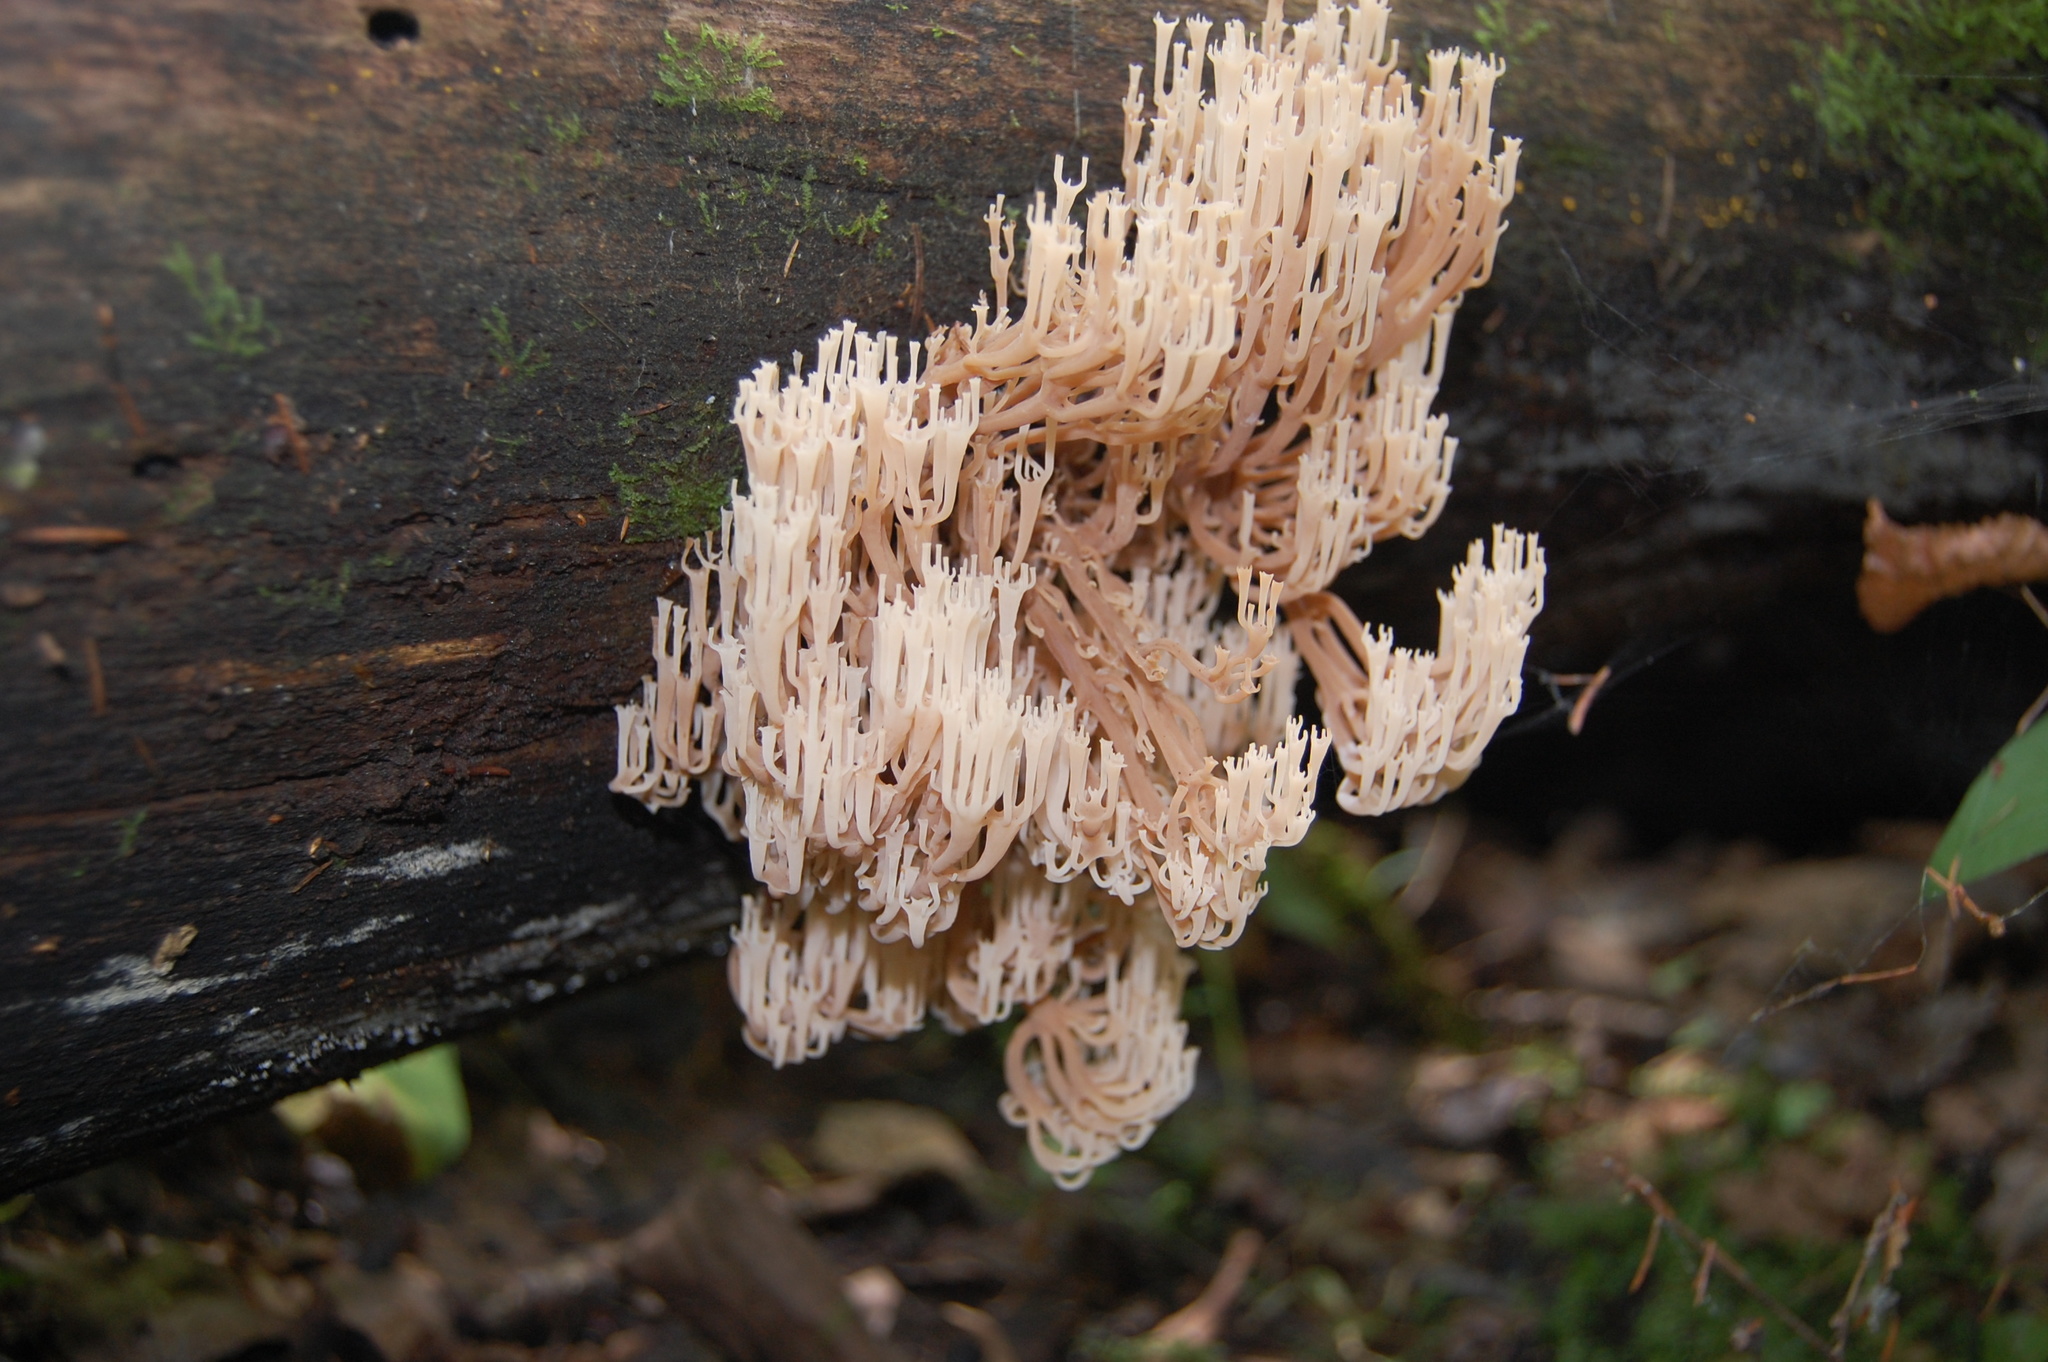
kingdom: Fungi
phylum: Basidiomycota
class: Agaricomycetes
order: Russulales
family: Auriscalpiaceae
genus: Artomyces
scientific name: Artomyces pyxidatus
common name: Crown-tipped coral fungus
